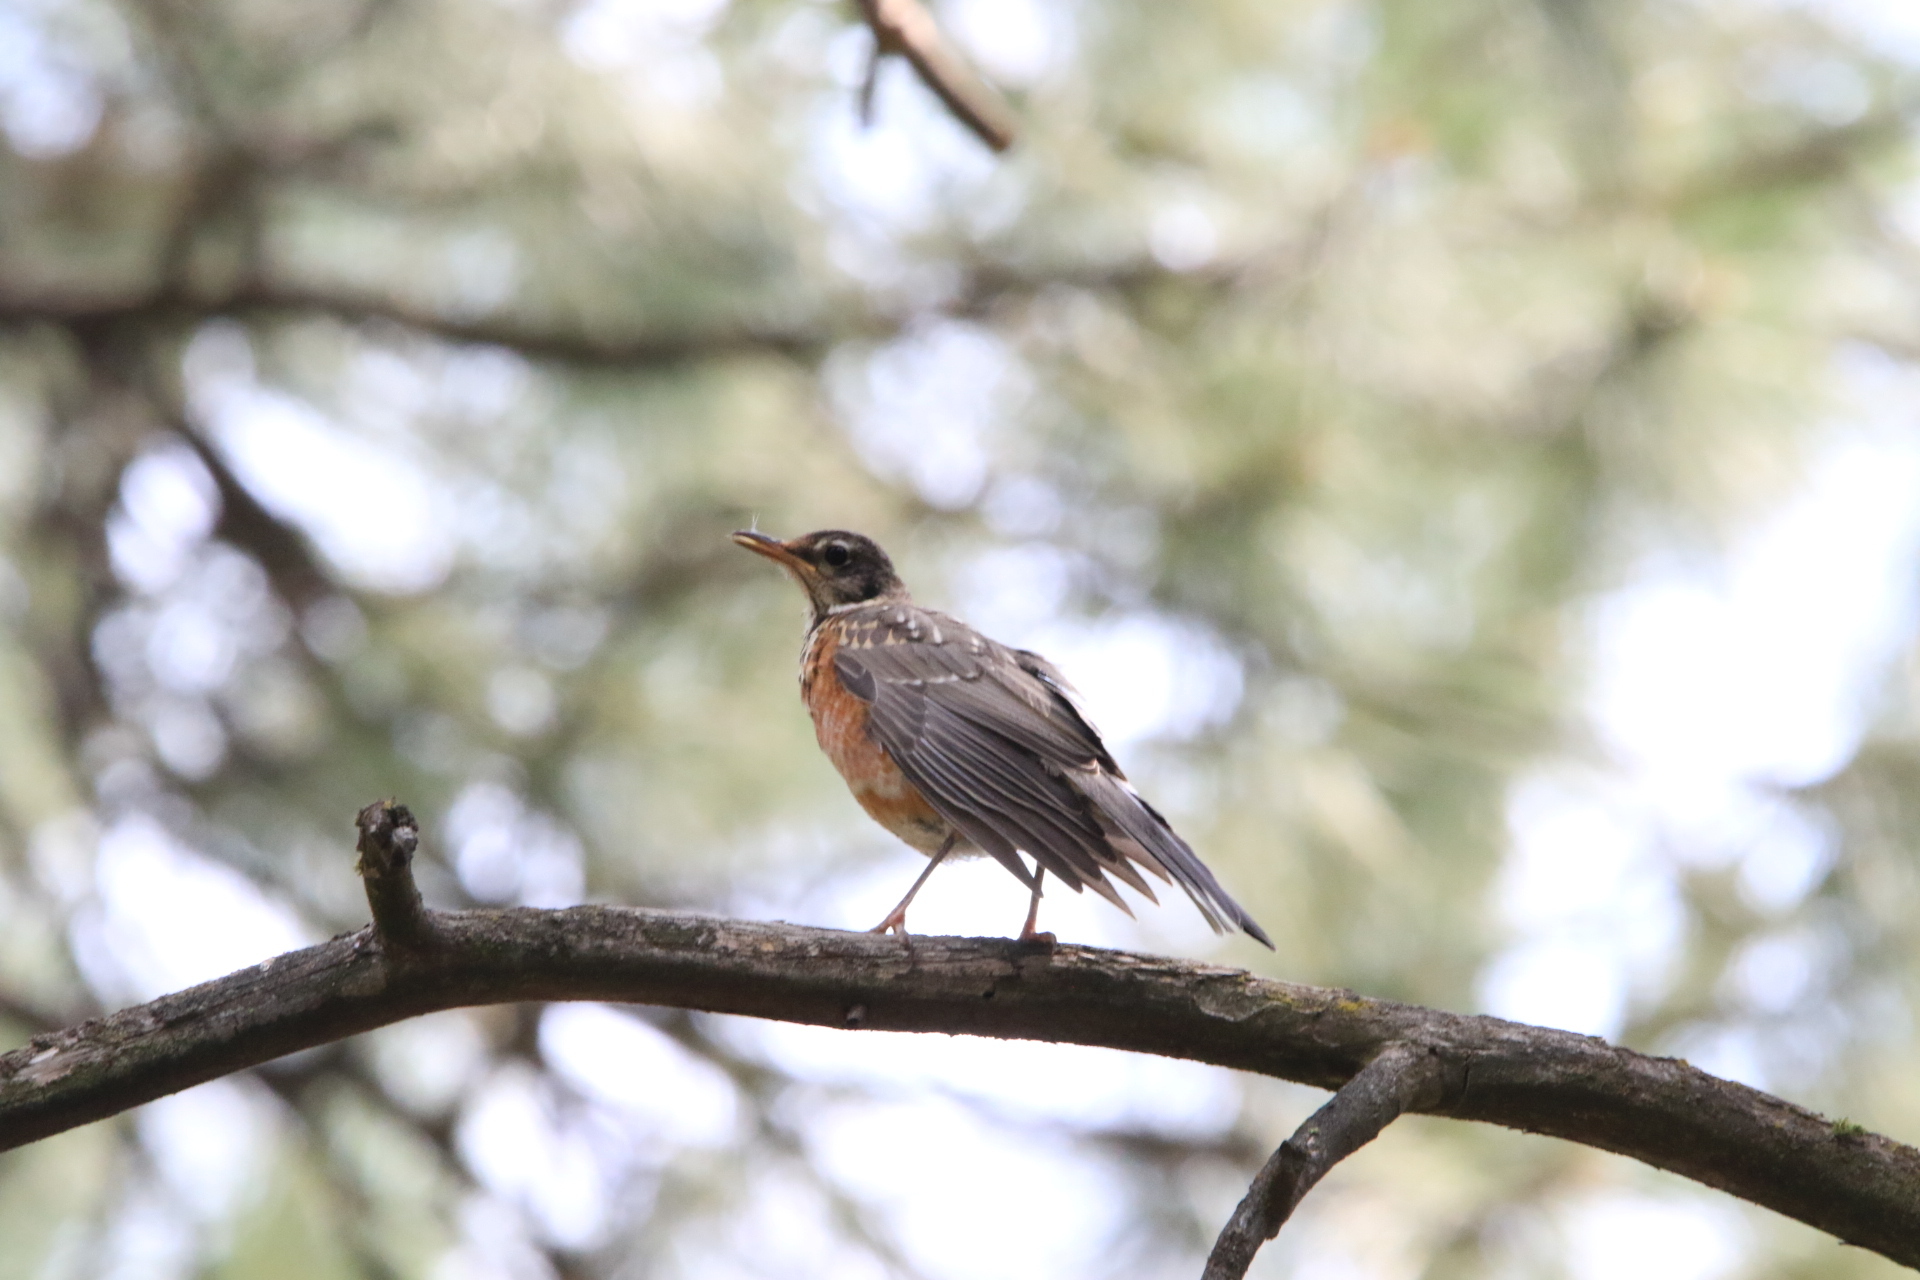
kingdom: Animalia
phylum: Chordata
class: Aves
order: Passeriformes
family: Turdidae
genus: Turdus
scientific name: Turdus migratorius
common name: American robin
